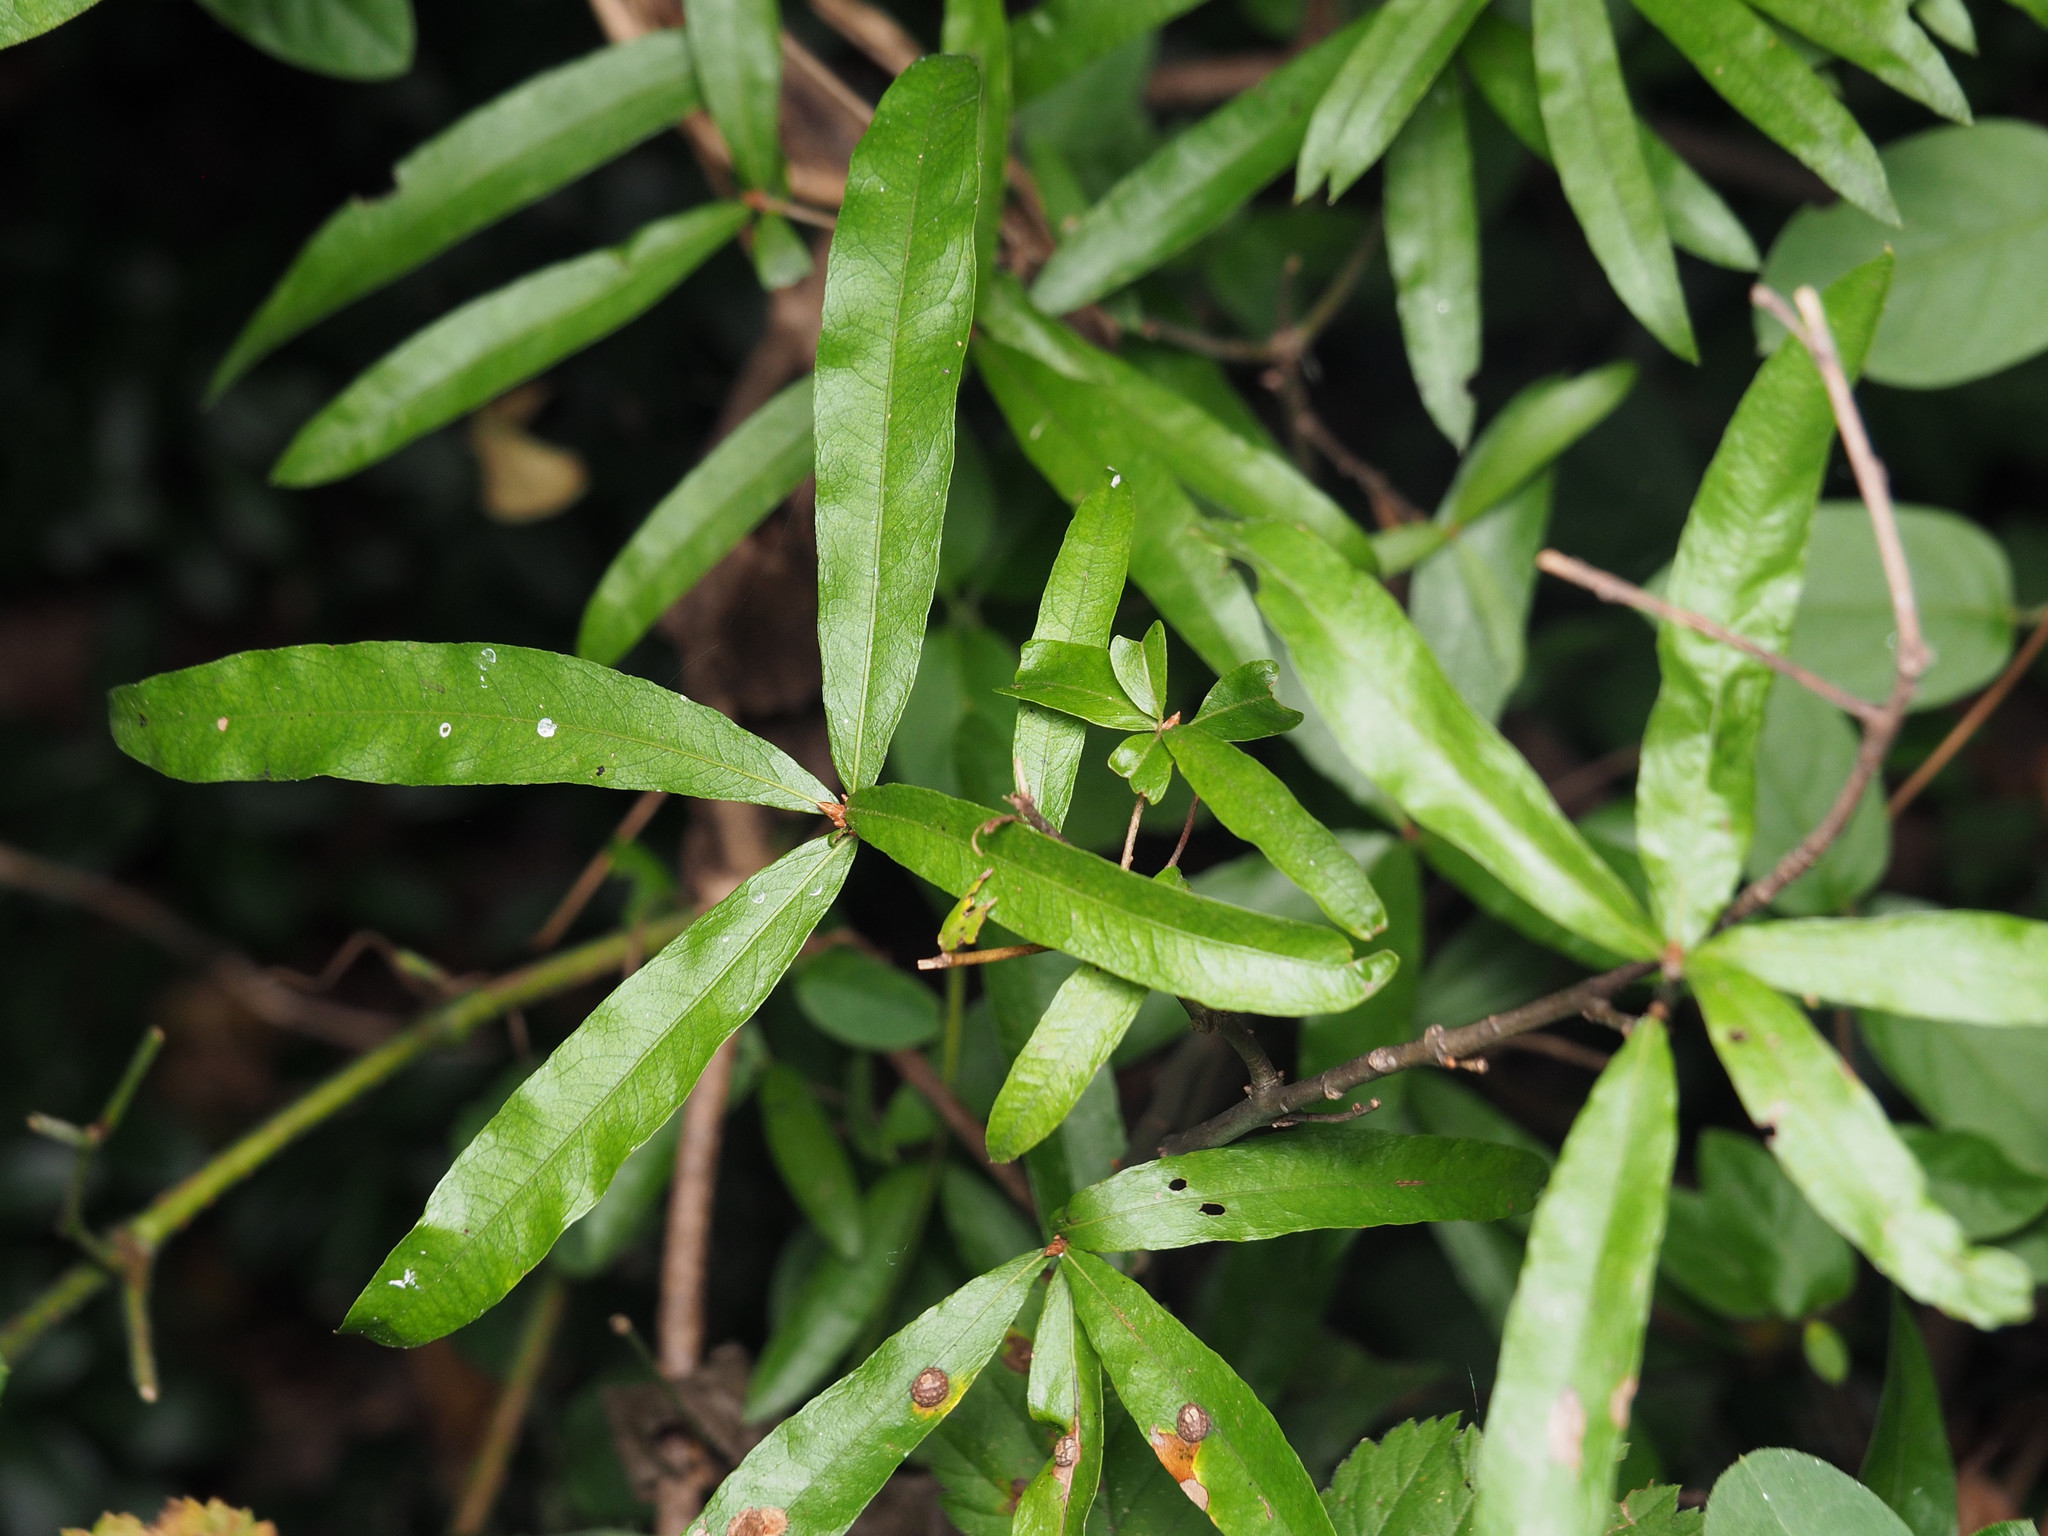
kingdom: Plantae
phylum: Tracheophyta
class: Magnoliopsida
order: Fagales
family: Fagaceae
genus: Quercus
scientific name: Quercus phellos
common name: Willow oak
